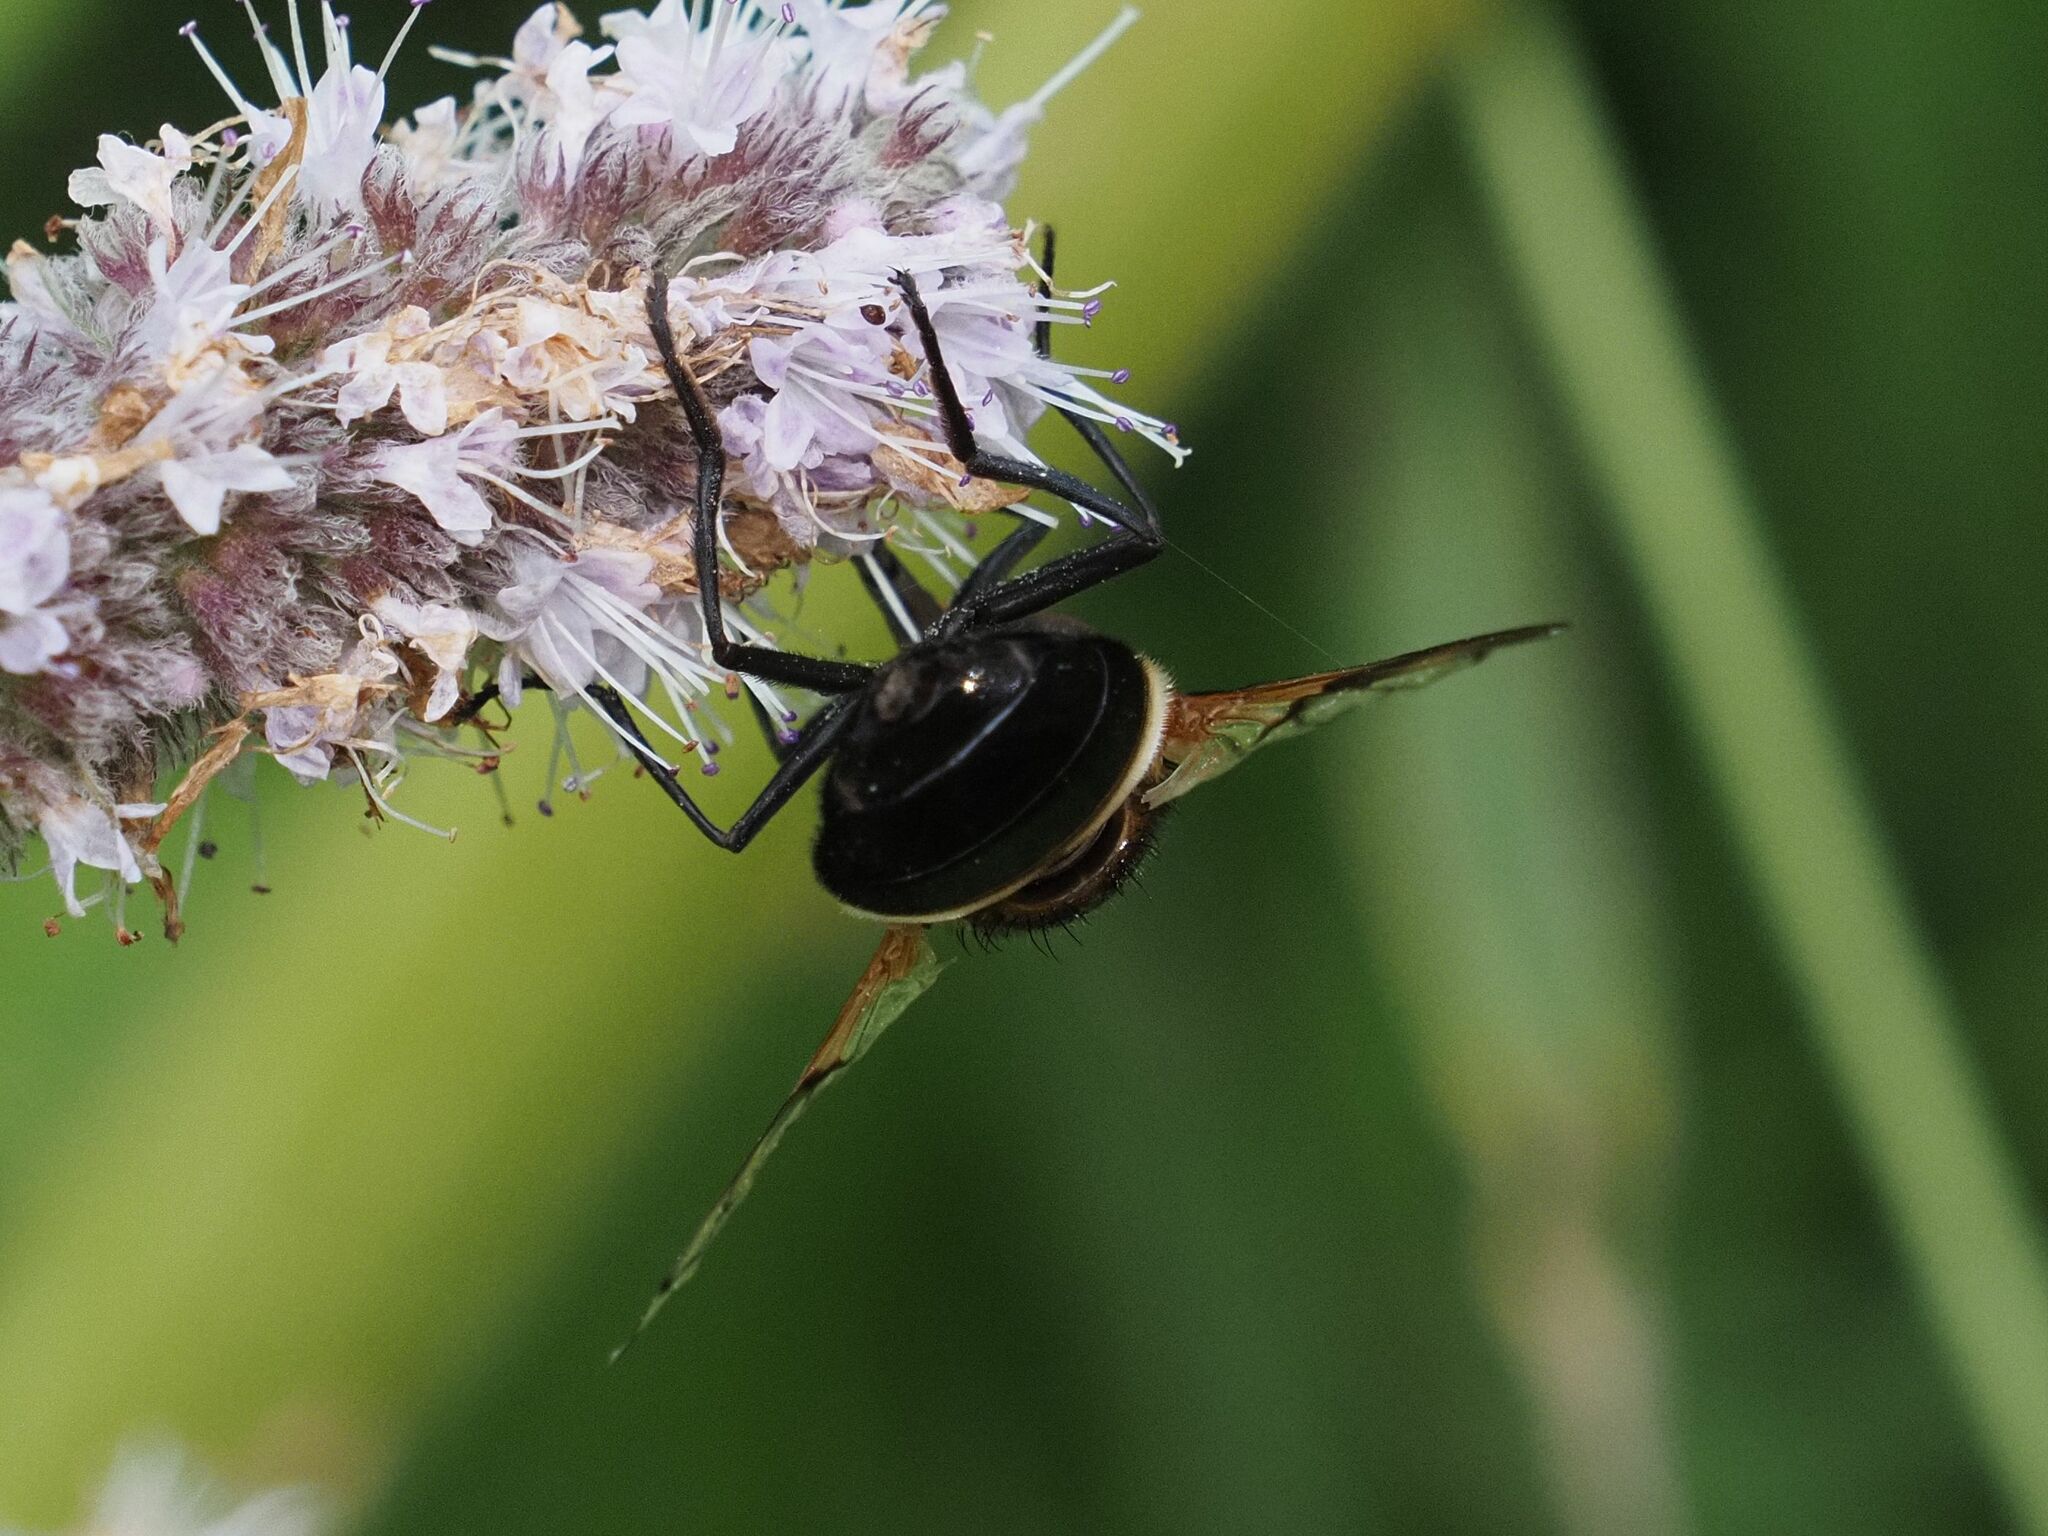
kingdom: Animalia
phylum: Arthropoda
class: Insecta
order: Diptera
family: Syrphidae
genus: Volucella
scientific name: Volucella pellucens
